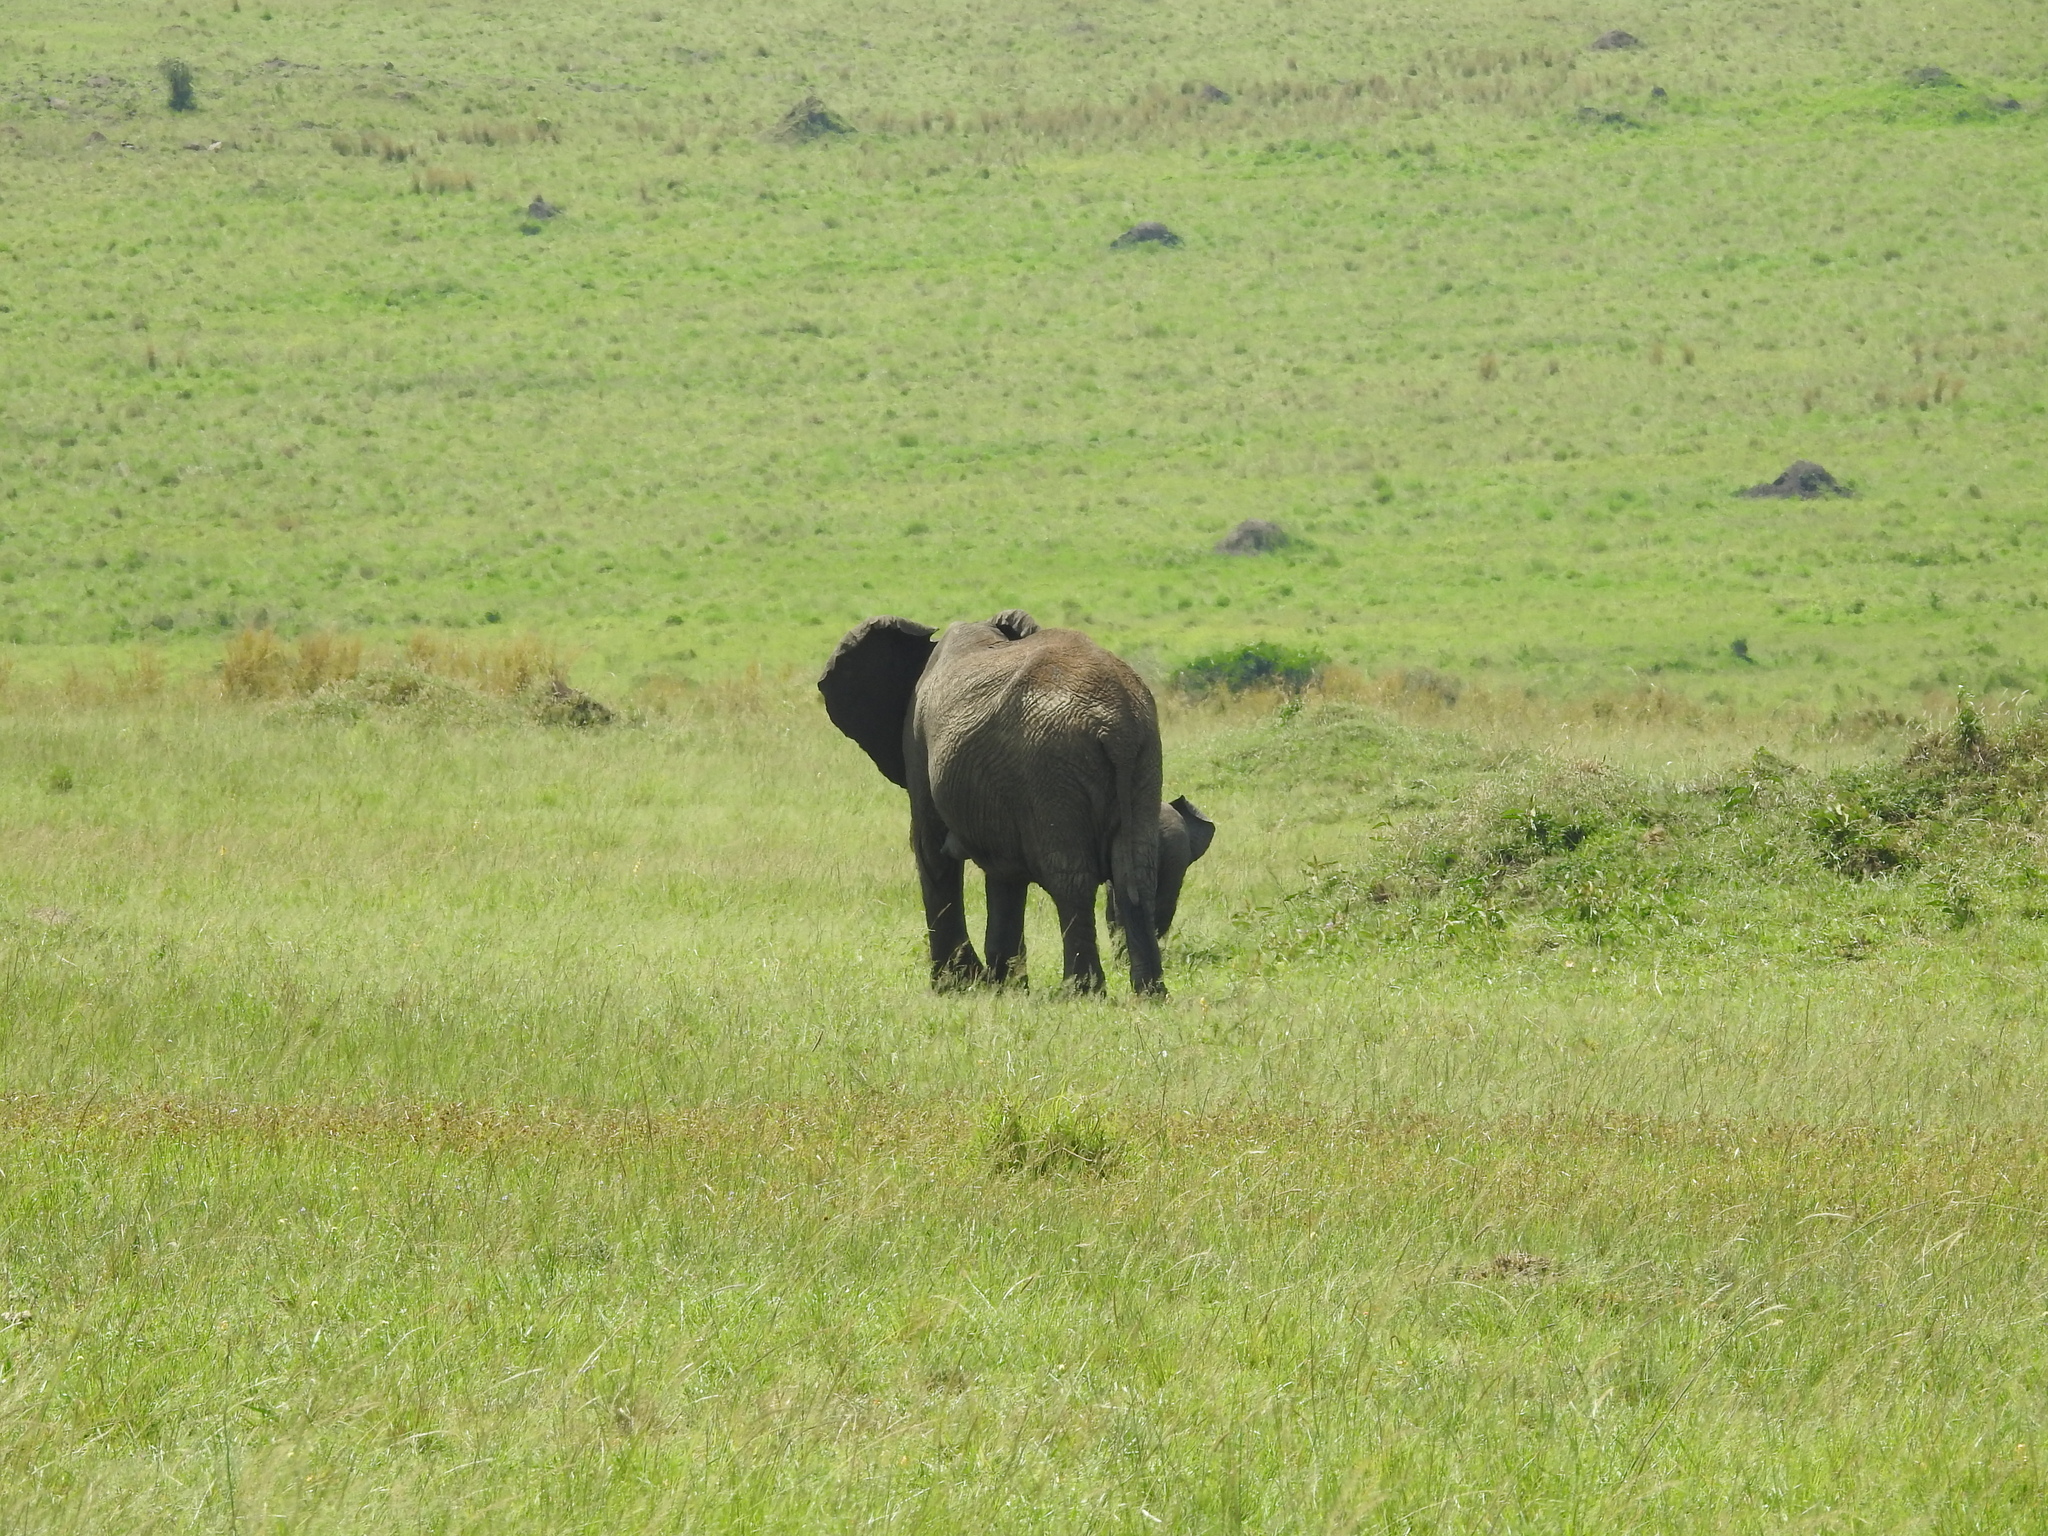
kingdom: Animalia
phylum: Chordata
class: Mammalia
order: Proboscidea
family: Elephantidae
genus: Loxodonta
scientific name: Loxodonta africana
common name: African elephant
